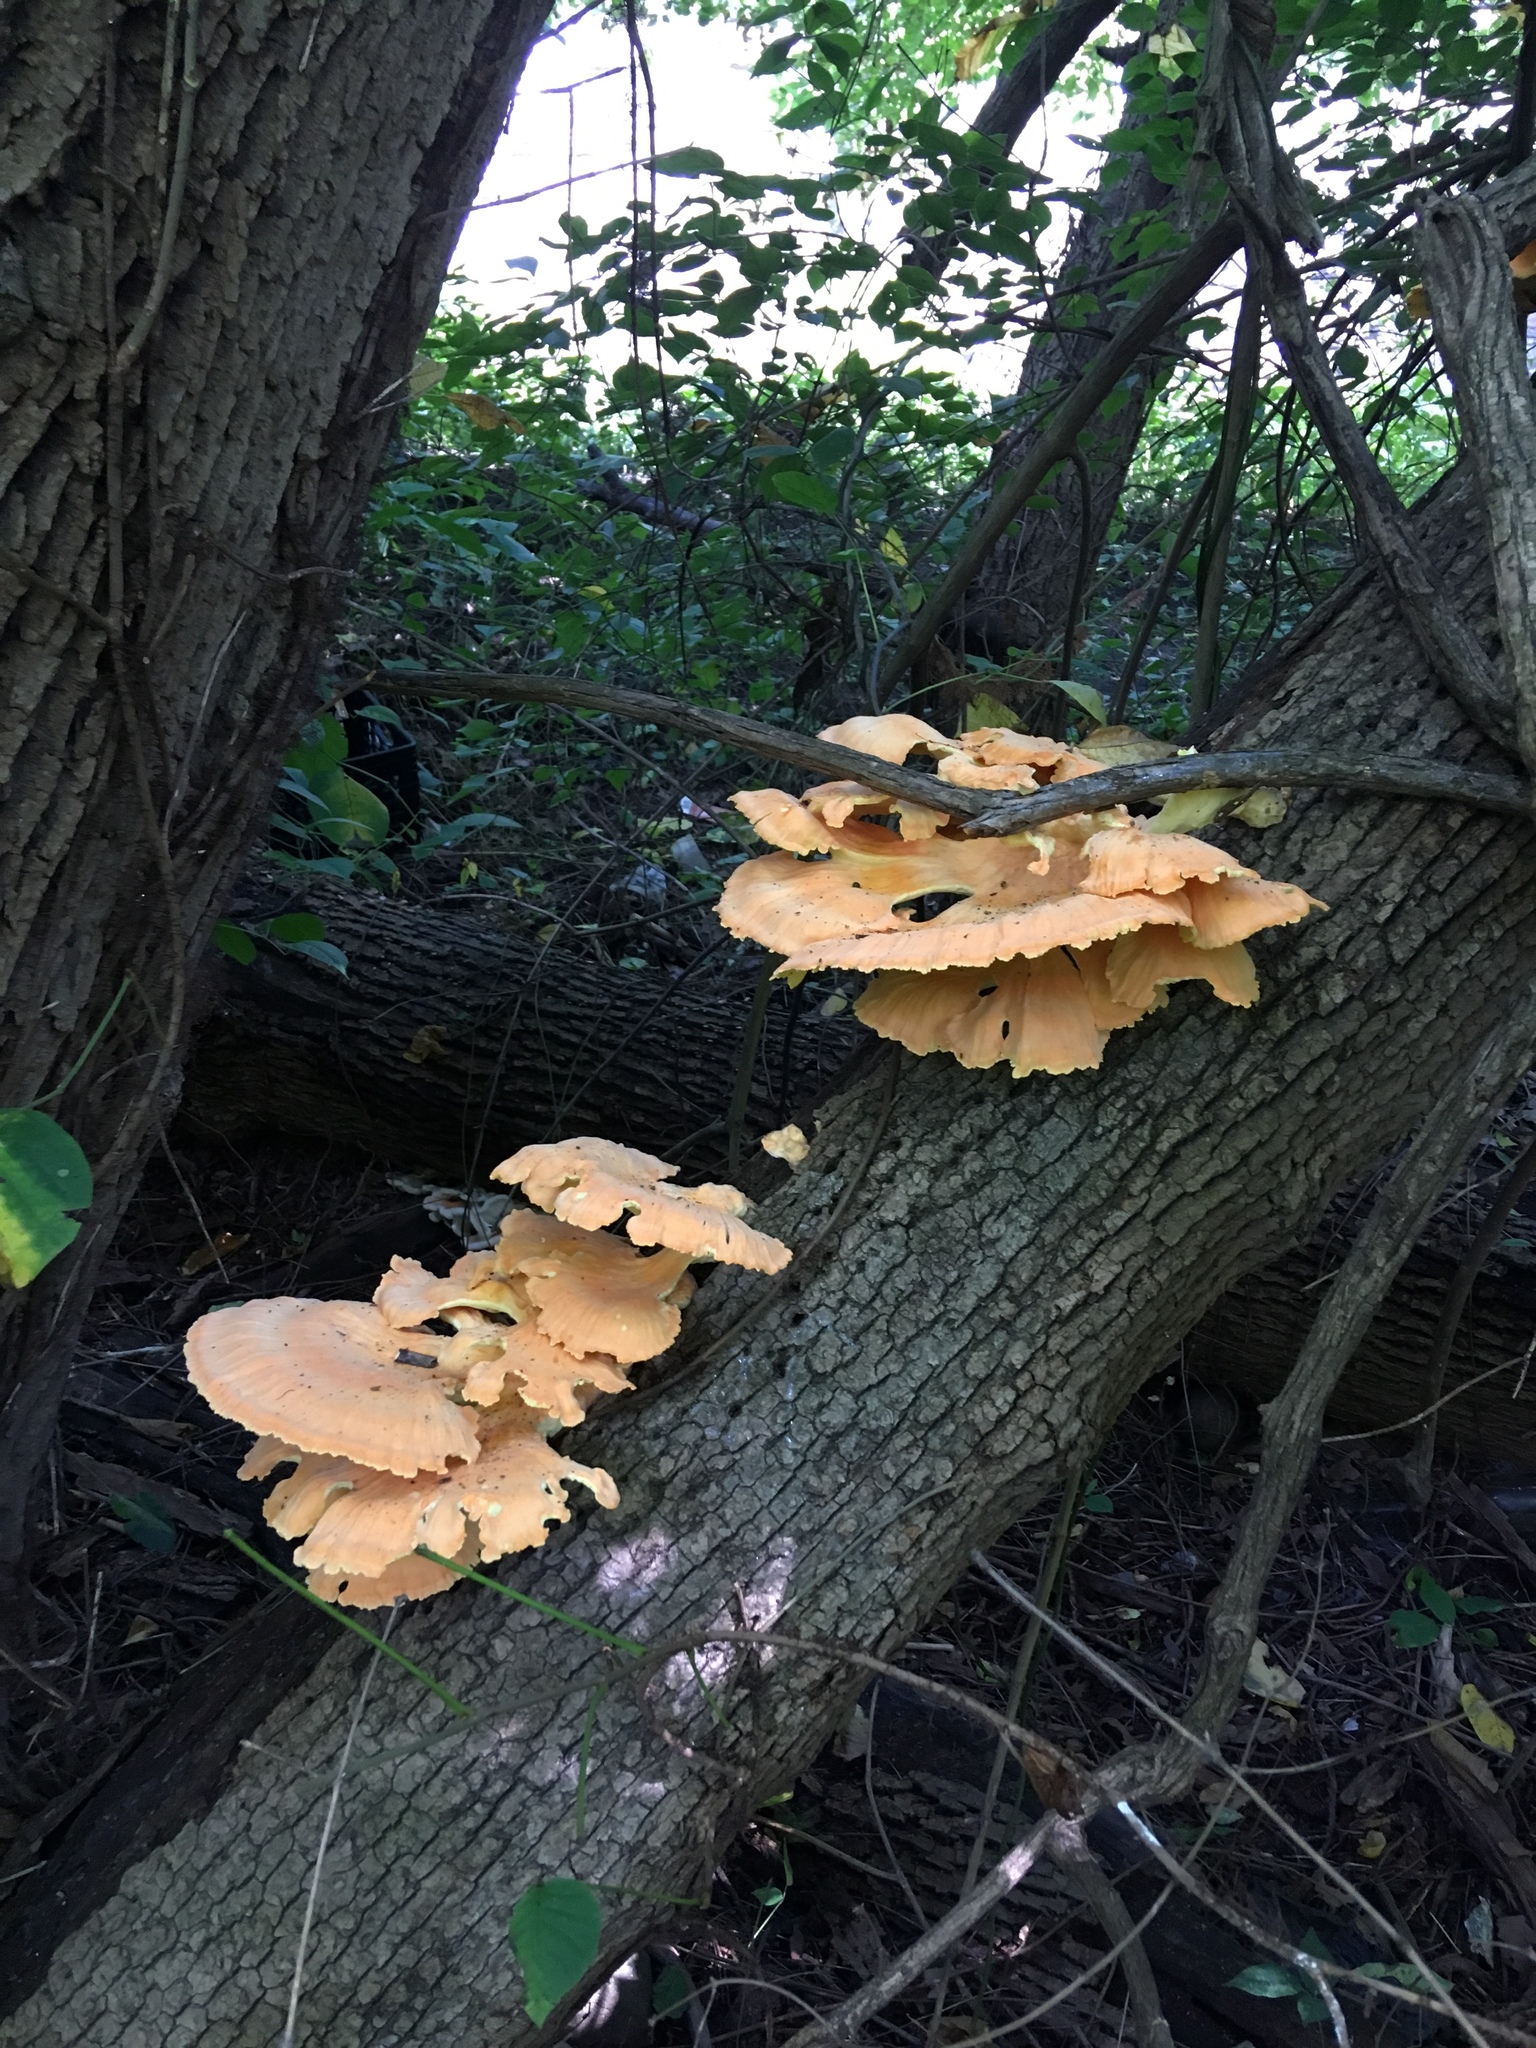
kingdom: Fungi
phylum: Basidiomycota
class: Agaricomycetes
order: Polyporales
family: Laetiporaceae
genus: Laetiporus
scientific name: Laetiporus sulphureus
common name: Chicken of the woods
